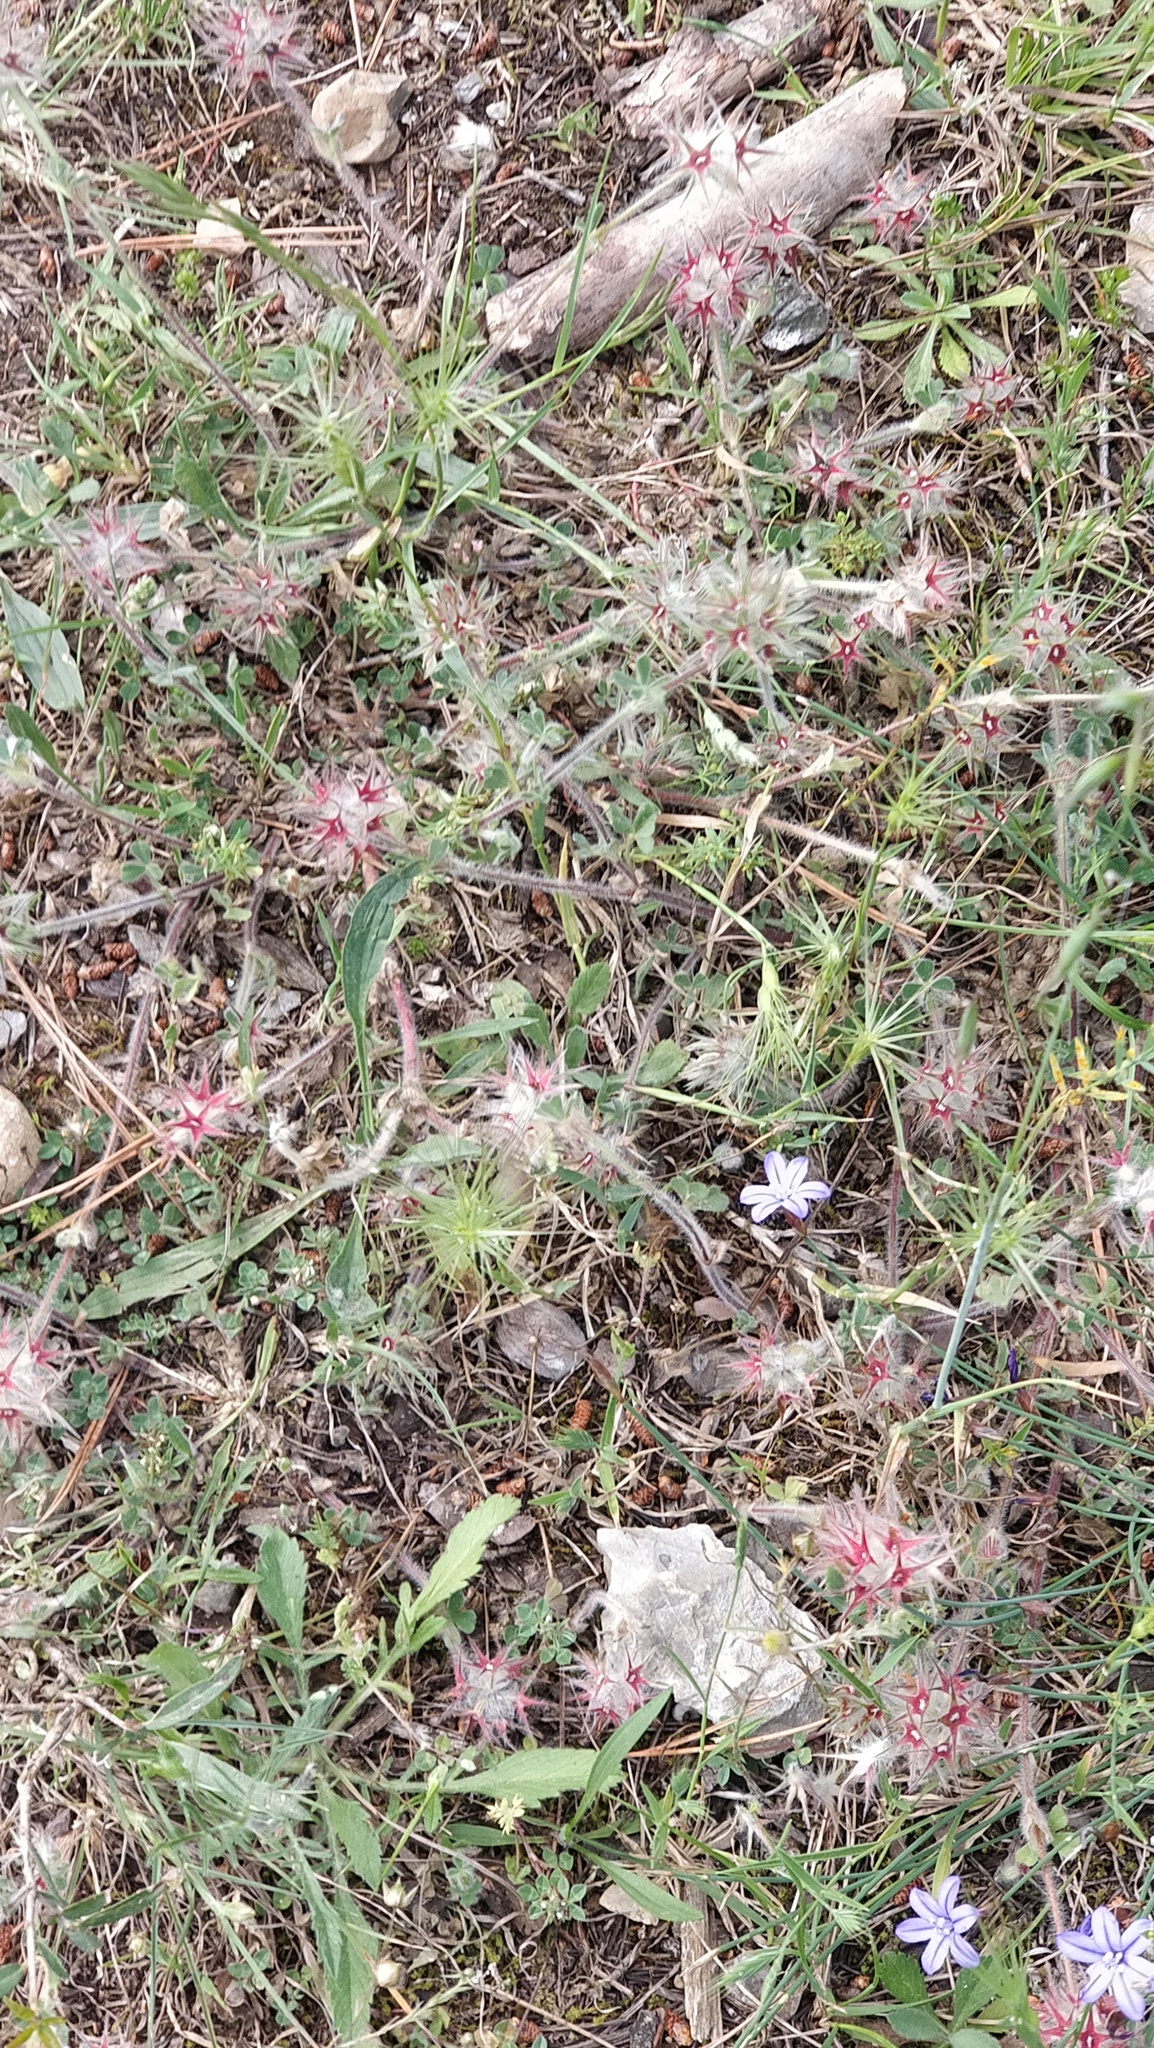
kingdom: Plantae
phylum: Tracheophyta
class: Magnoliopsida
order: Fabales
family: Fabaceae
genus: Trifolium
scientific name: Trifolium stellatum
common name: Starry clover
